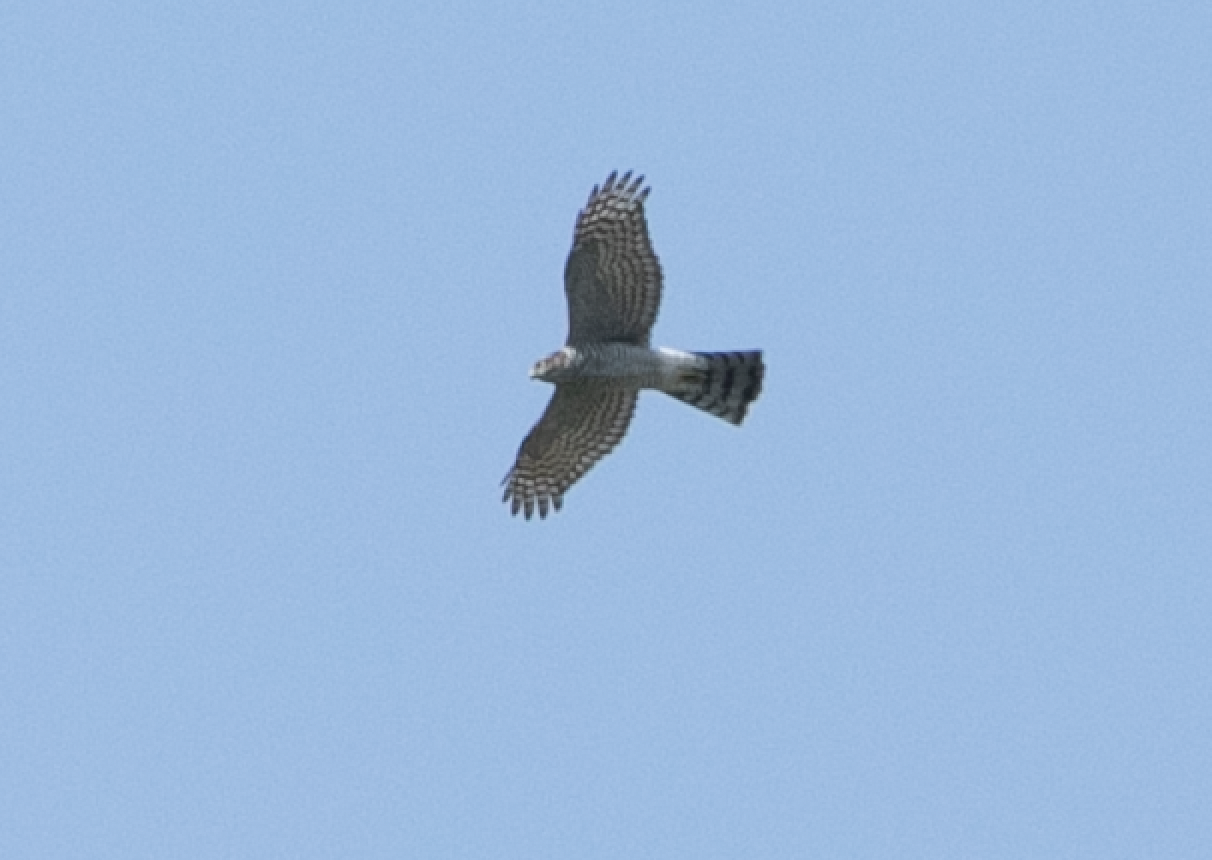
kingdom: Animalia
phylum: Chordata
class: Aves
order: Accipitriformes
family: Accipitridae
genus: Accipiter
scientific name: Accipiter nisus
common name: Eurasian sparrowhawk
